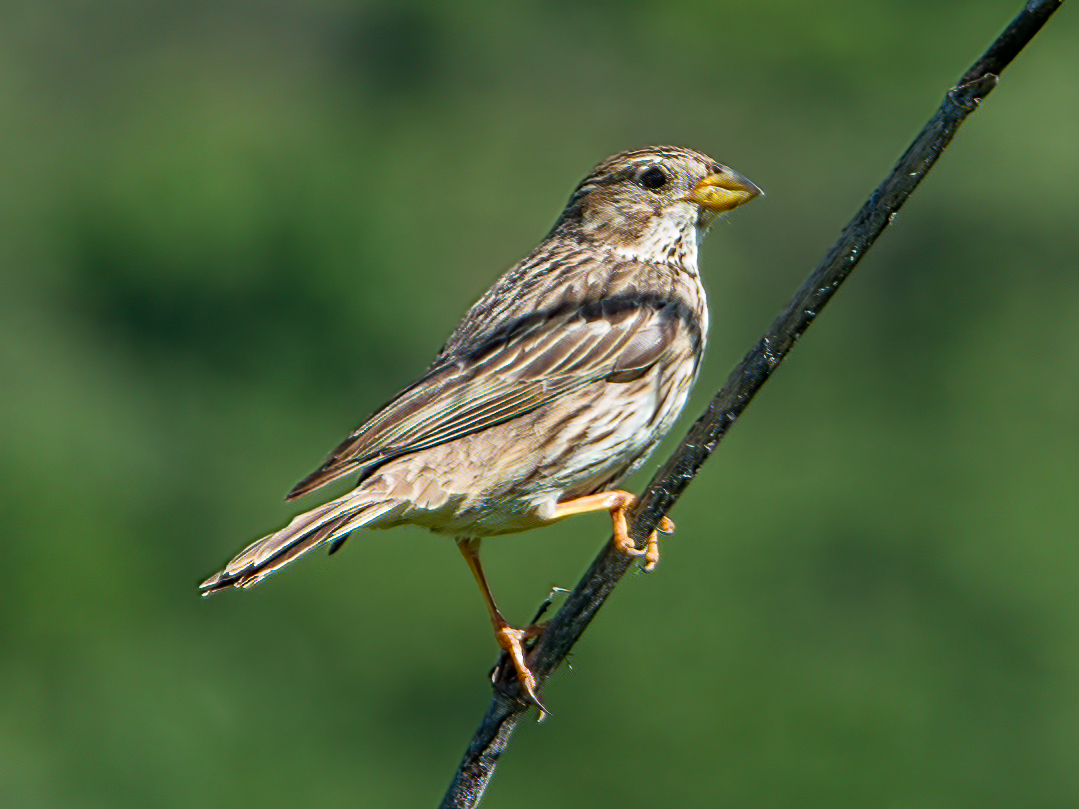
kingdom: Animalia
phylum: Chordata
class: Aves
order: Passeriformes
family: Emberizidae
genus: Emberiza
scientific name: Emberiza calandra
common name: Corn bunting
